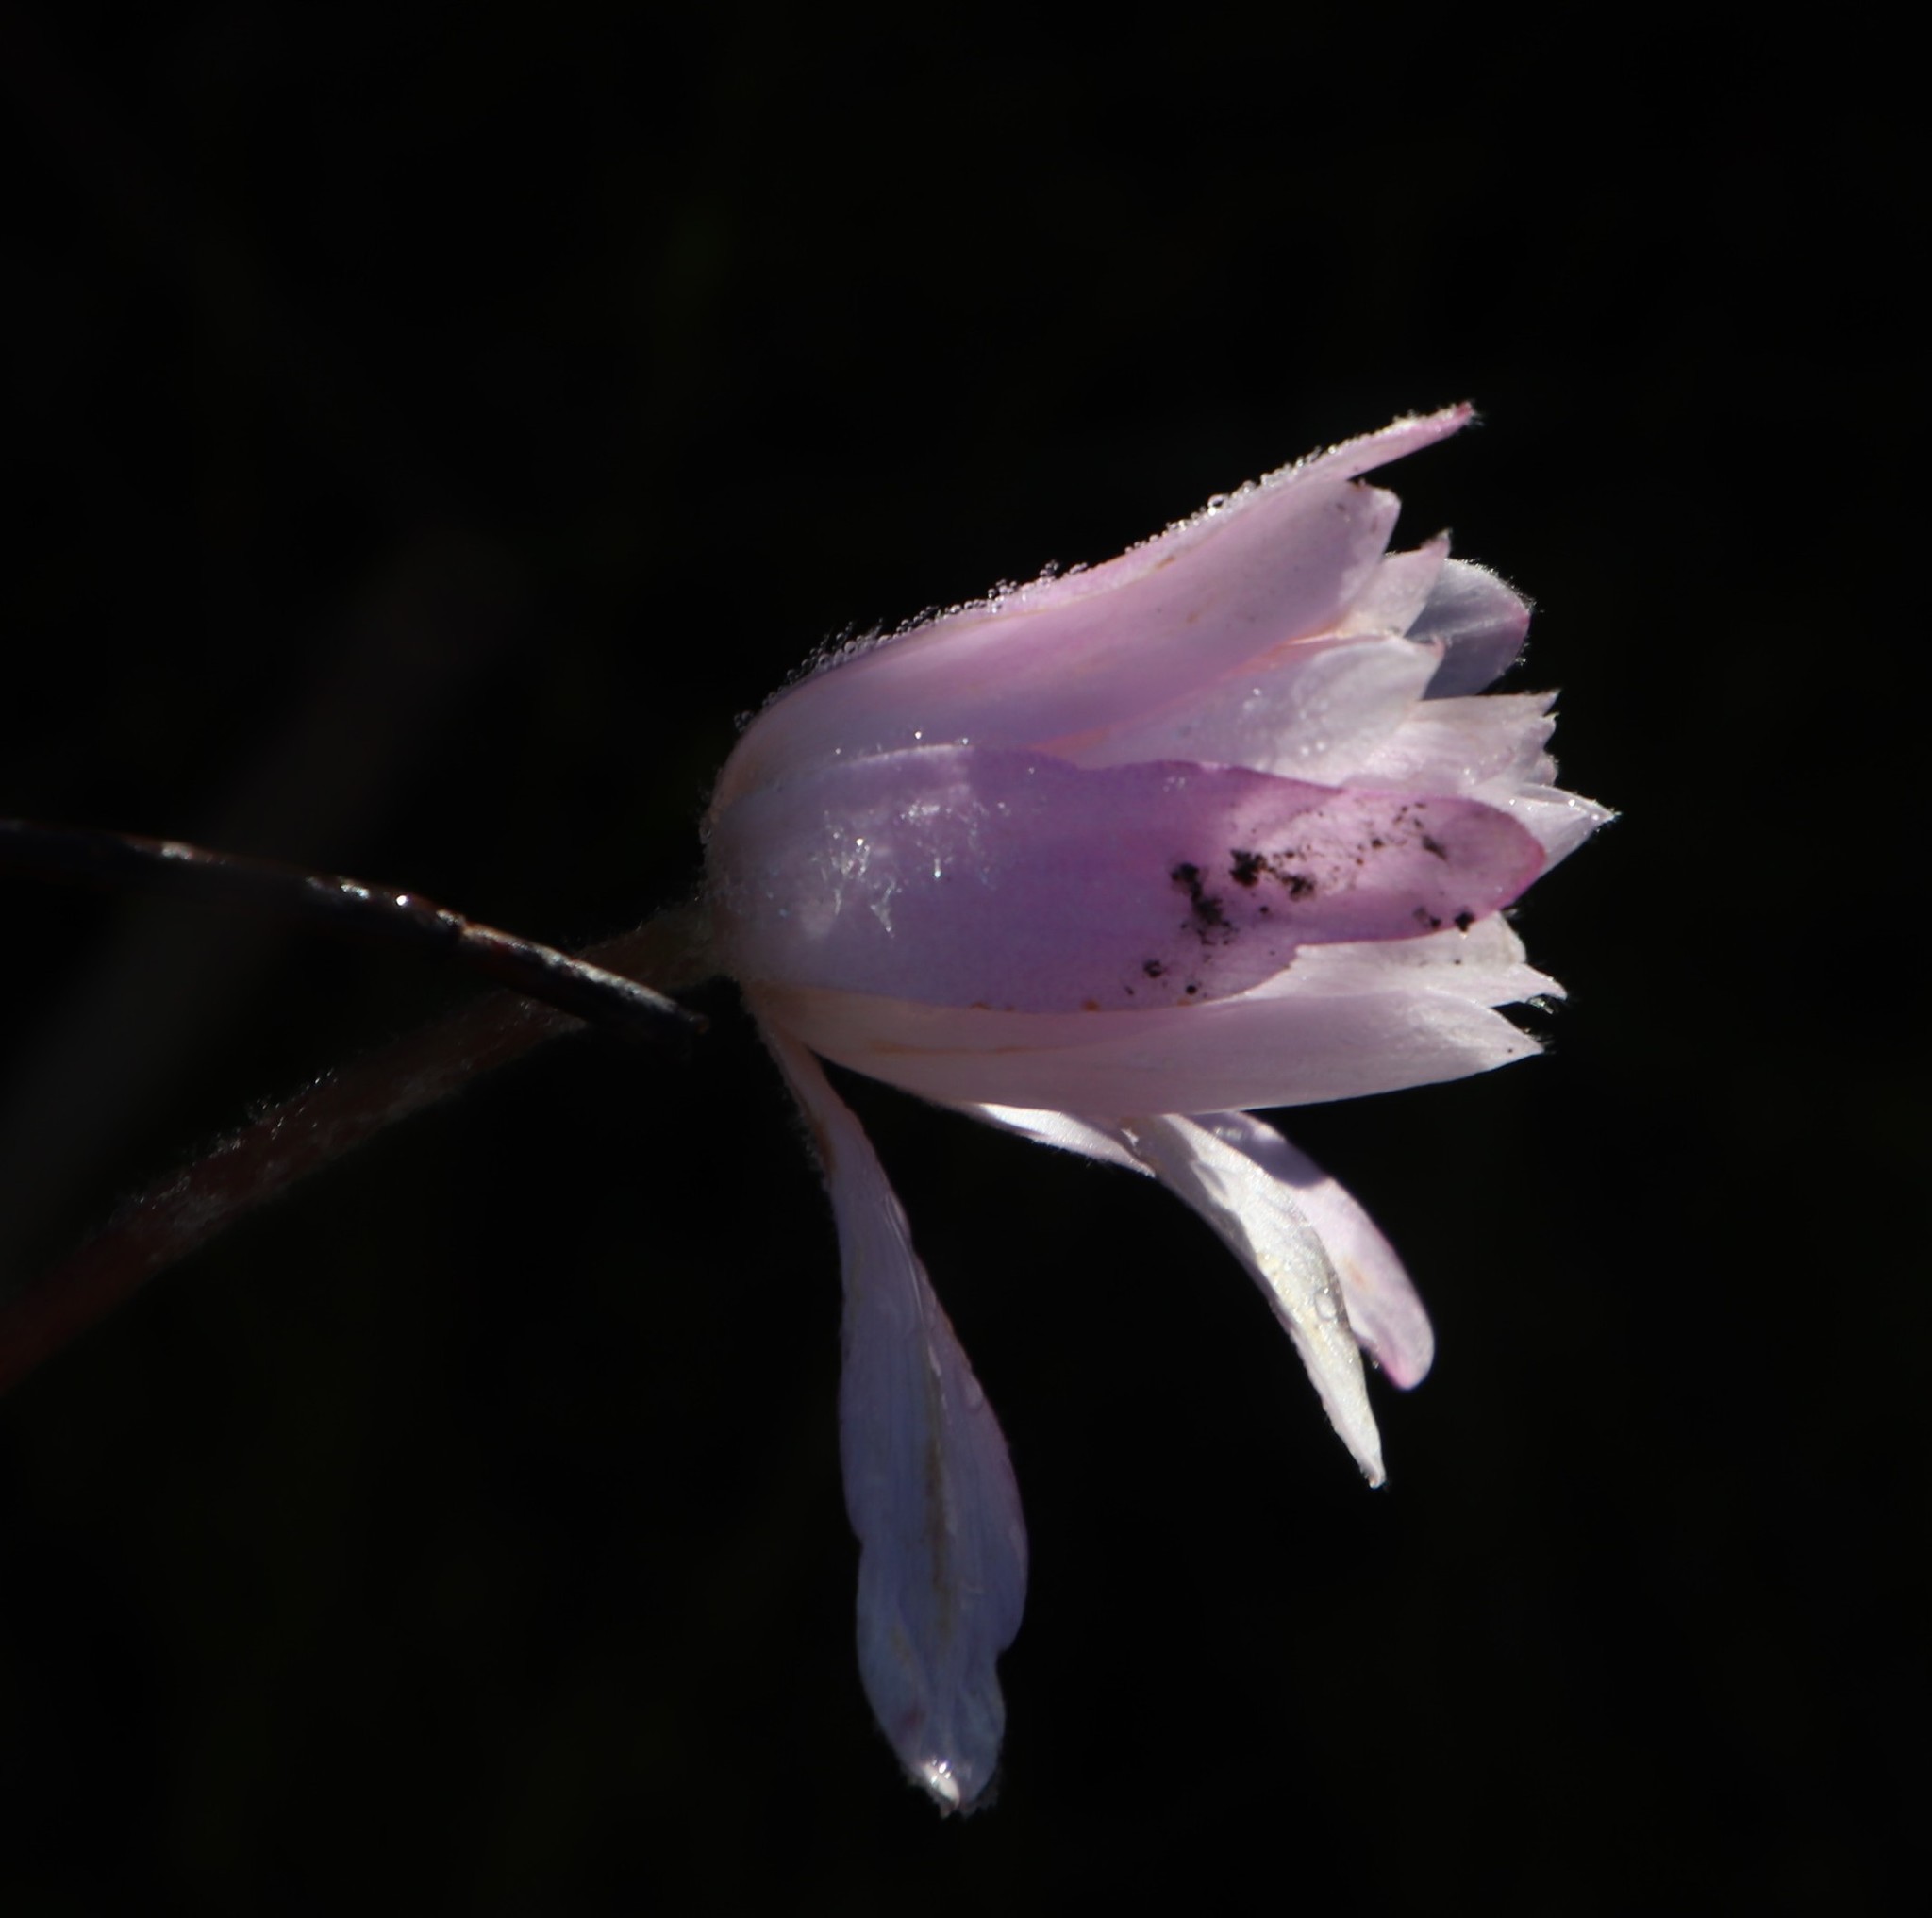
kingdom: Plantae
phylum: Tracheophyta
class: Magnoliopsida
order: Ranunculales
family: Ranunculaceae
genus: Knowltonia
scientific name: Knowltonia tenuifolia
